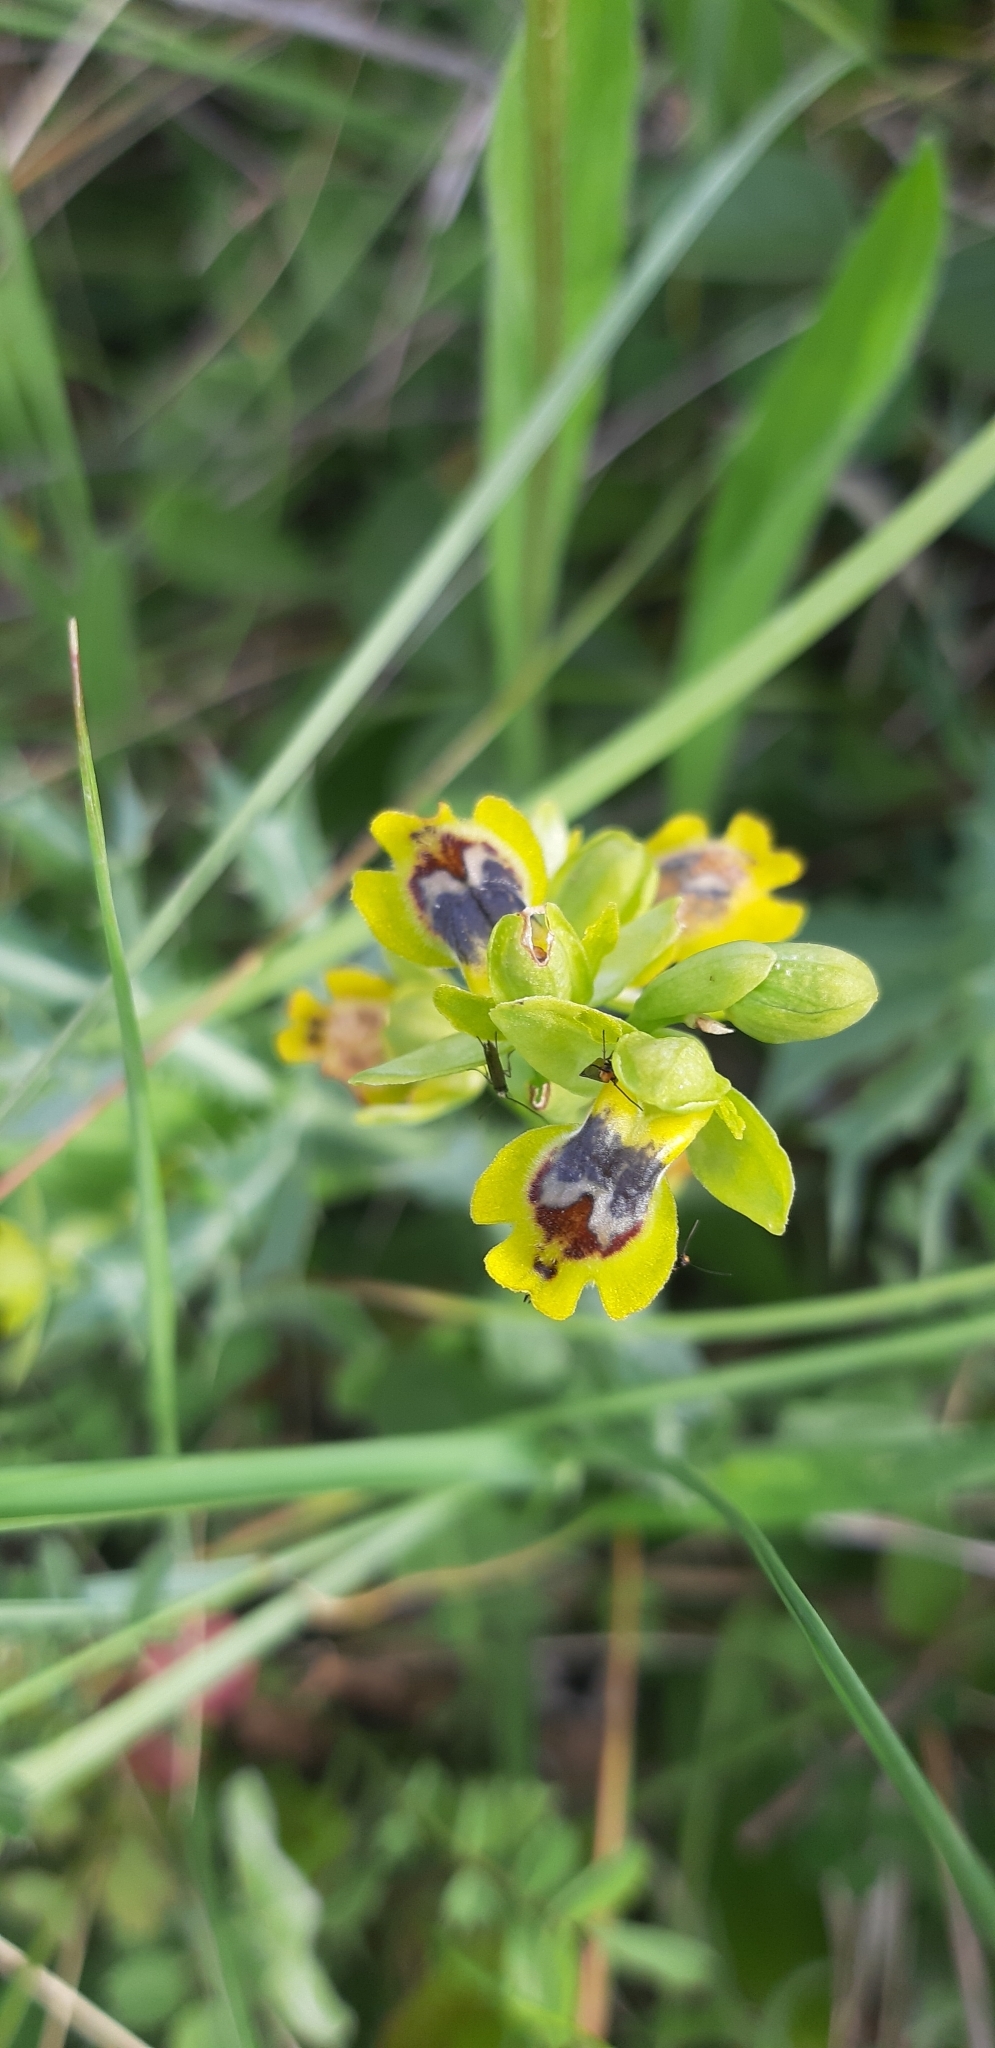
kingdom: Plantae
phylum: Tracheophyta
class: Liliopsida
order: Asparagales
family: Orchidaceae
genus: Ophrys
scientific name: Ophrys lutea
